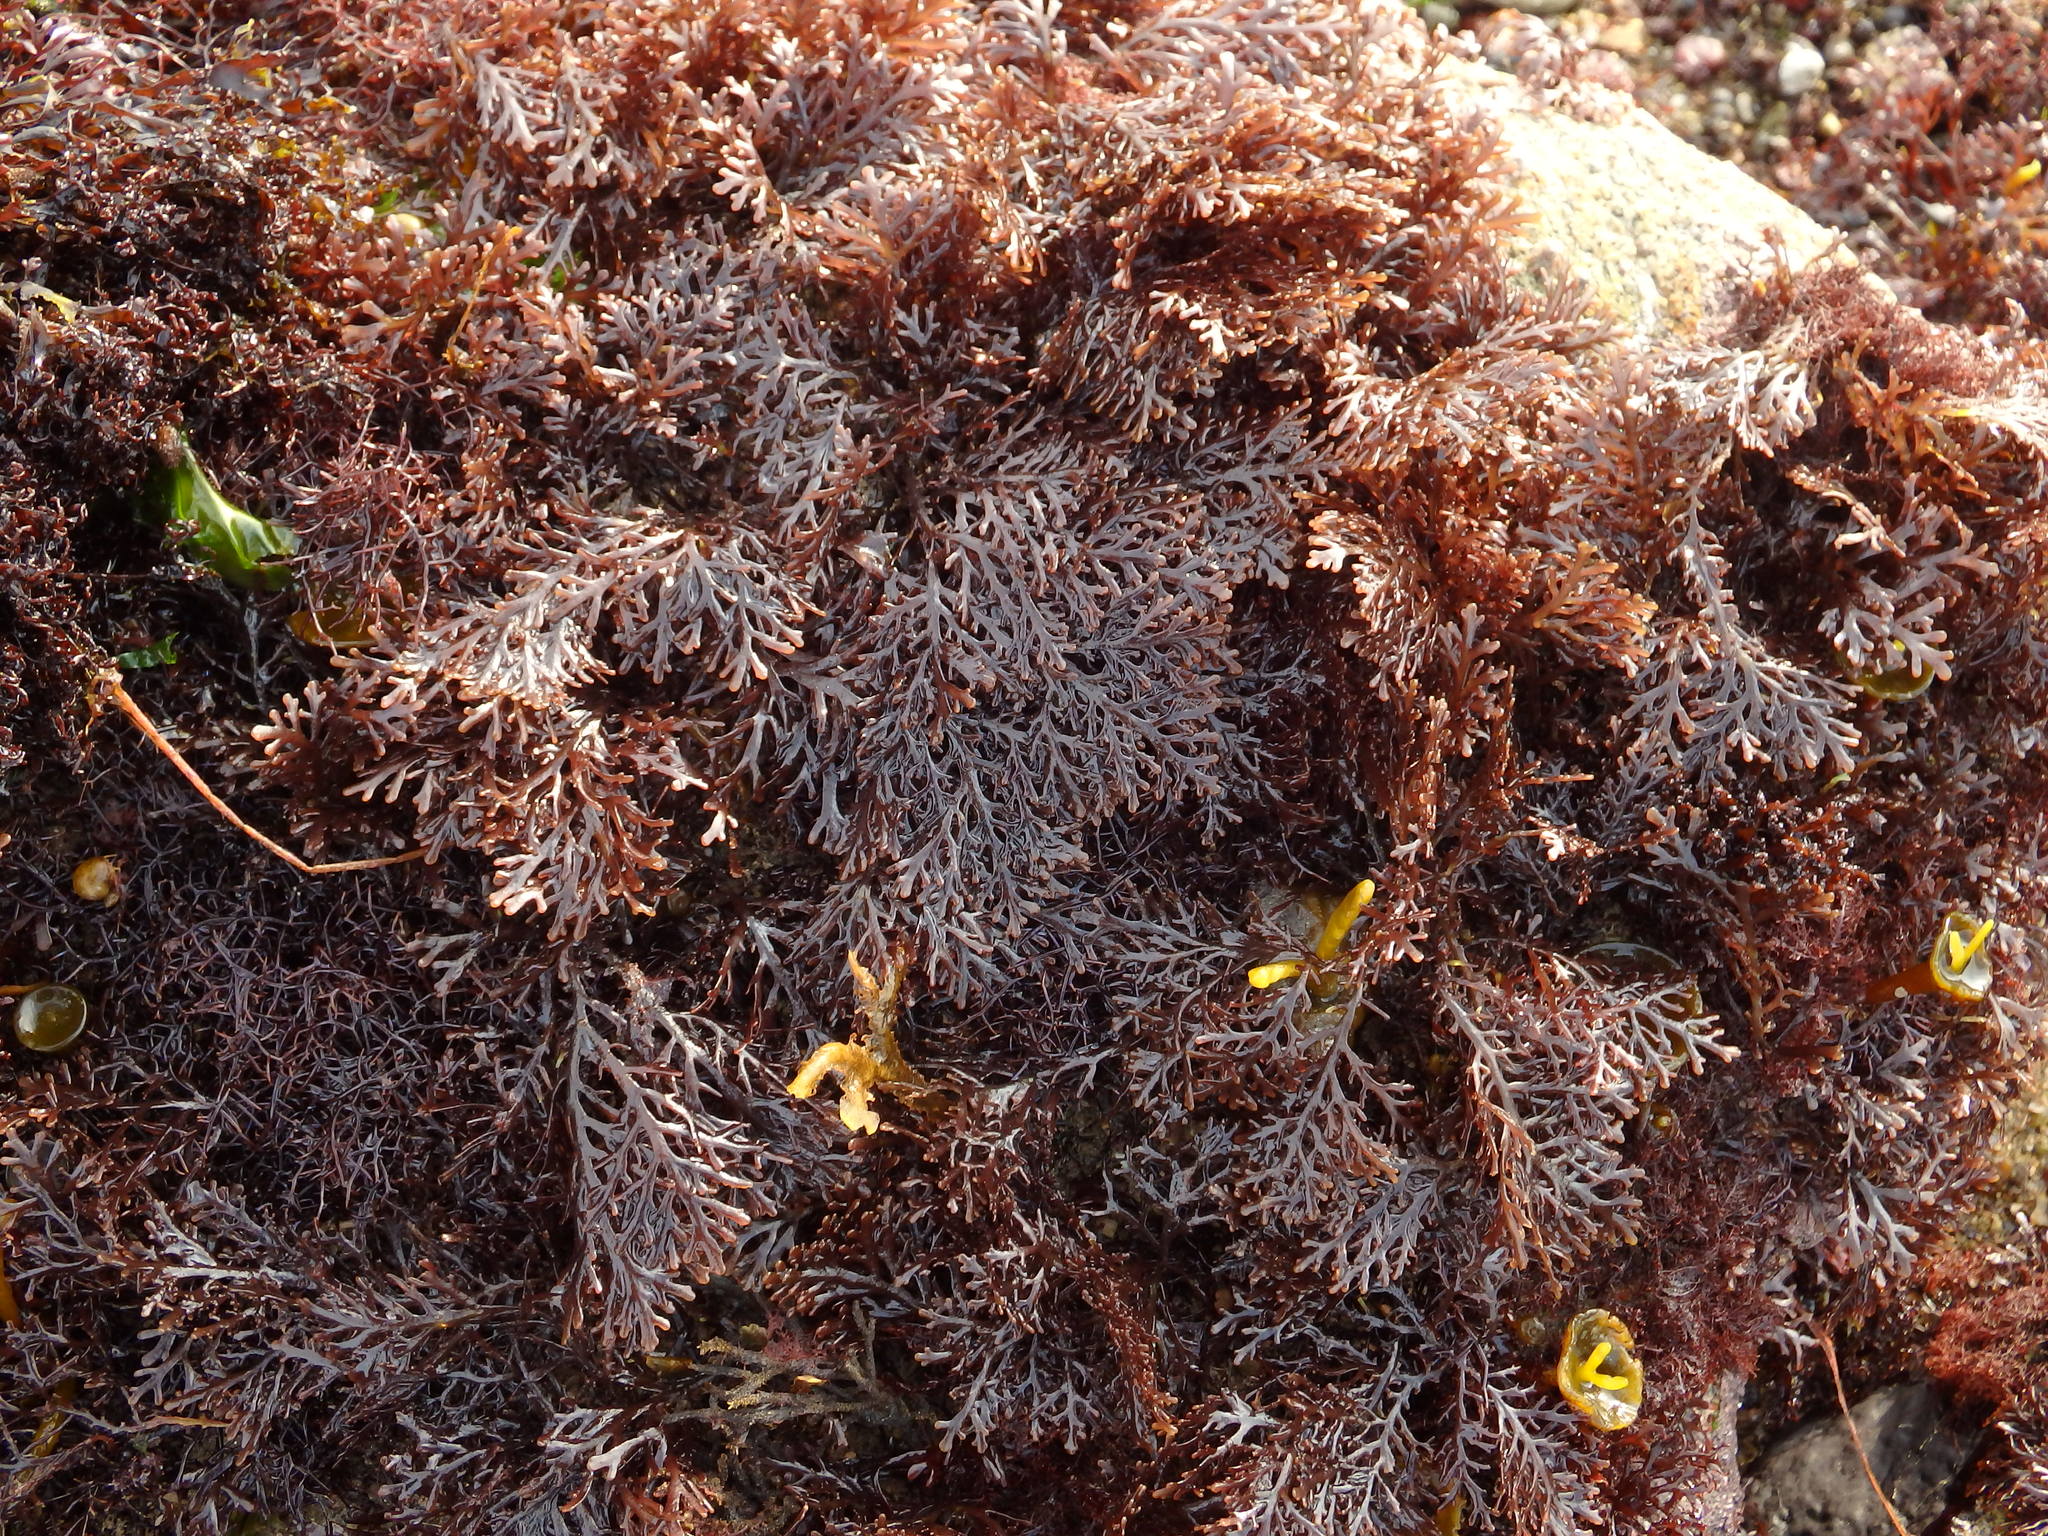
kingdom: Plantae
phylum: Rhodophyta
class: Florideophyceae
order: Ceramiales
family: Rhodomelaceae
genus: Laurencia
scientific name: Laurencia Osmundea pinnatifida
